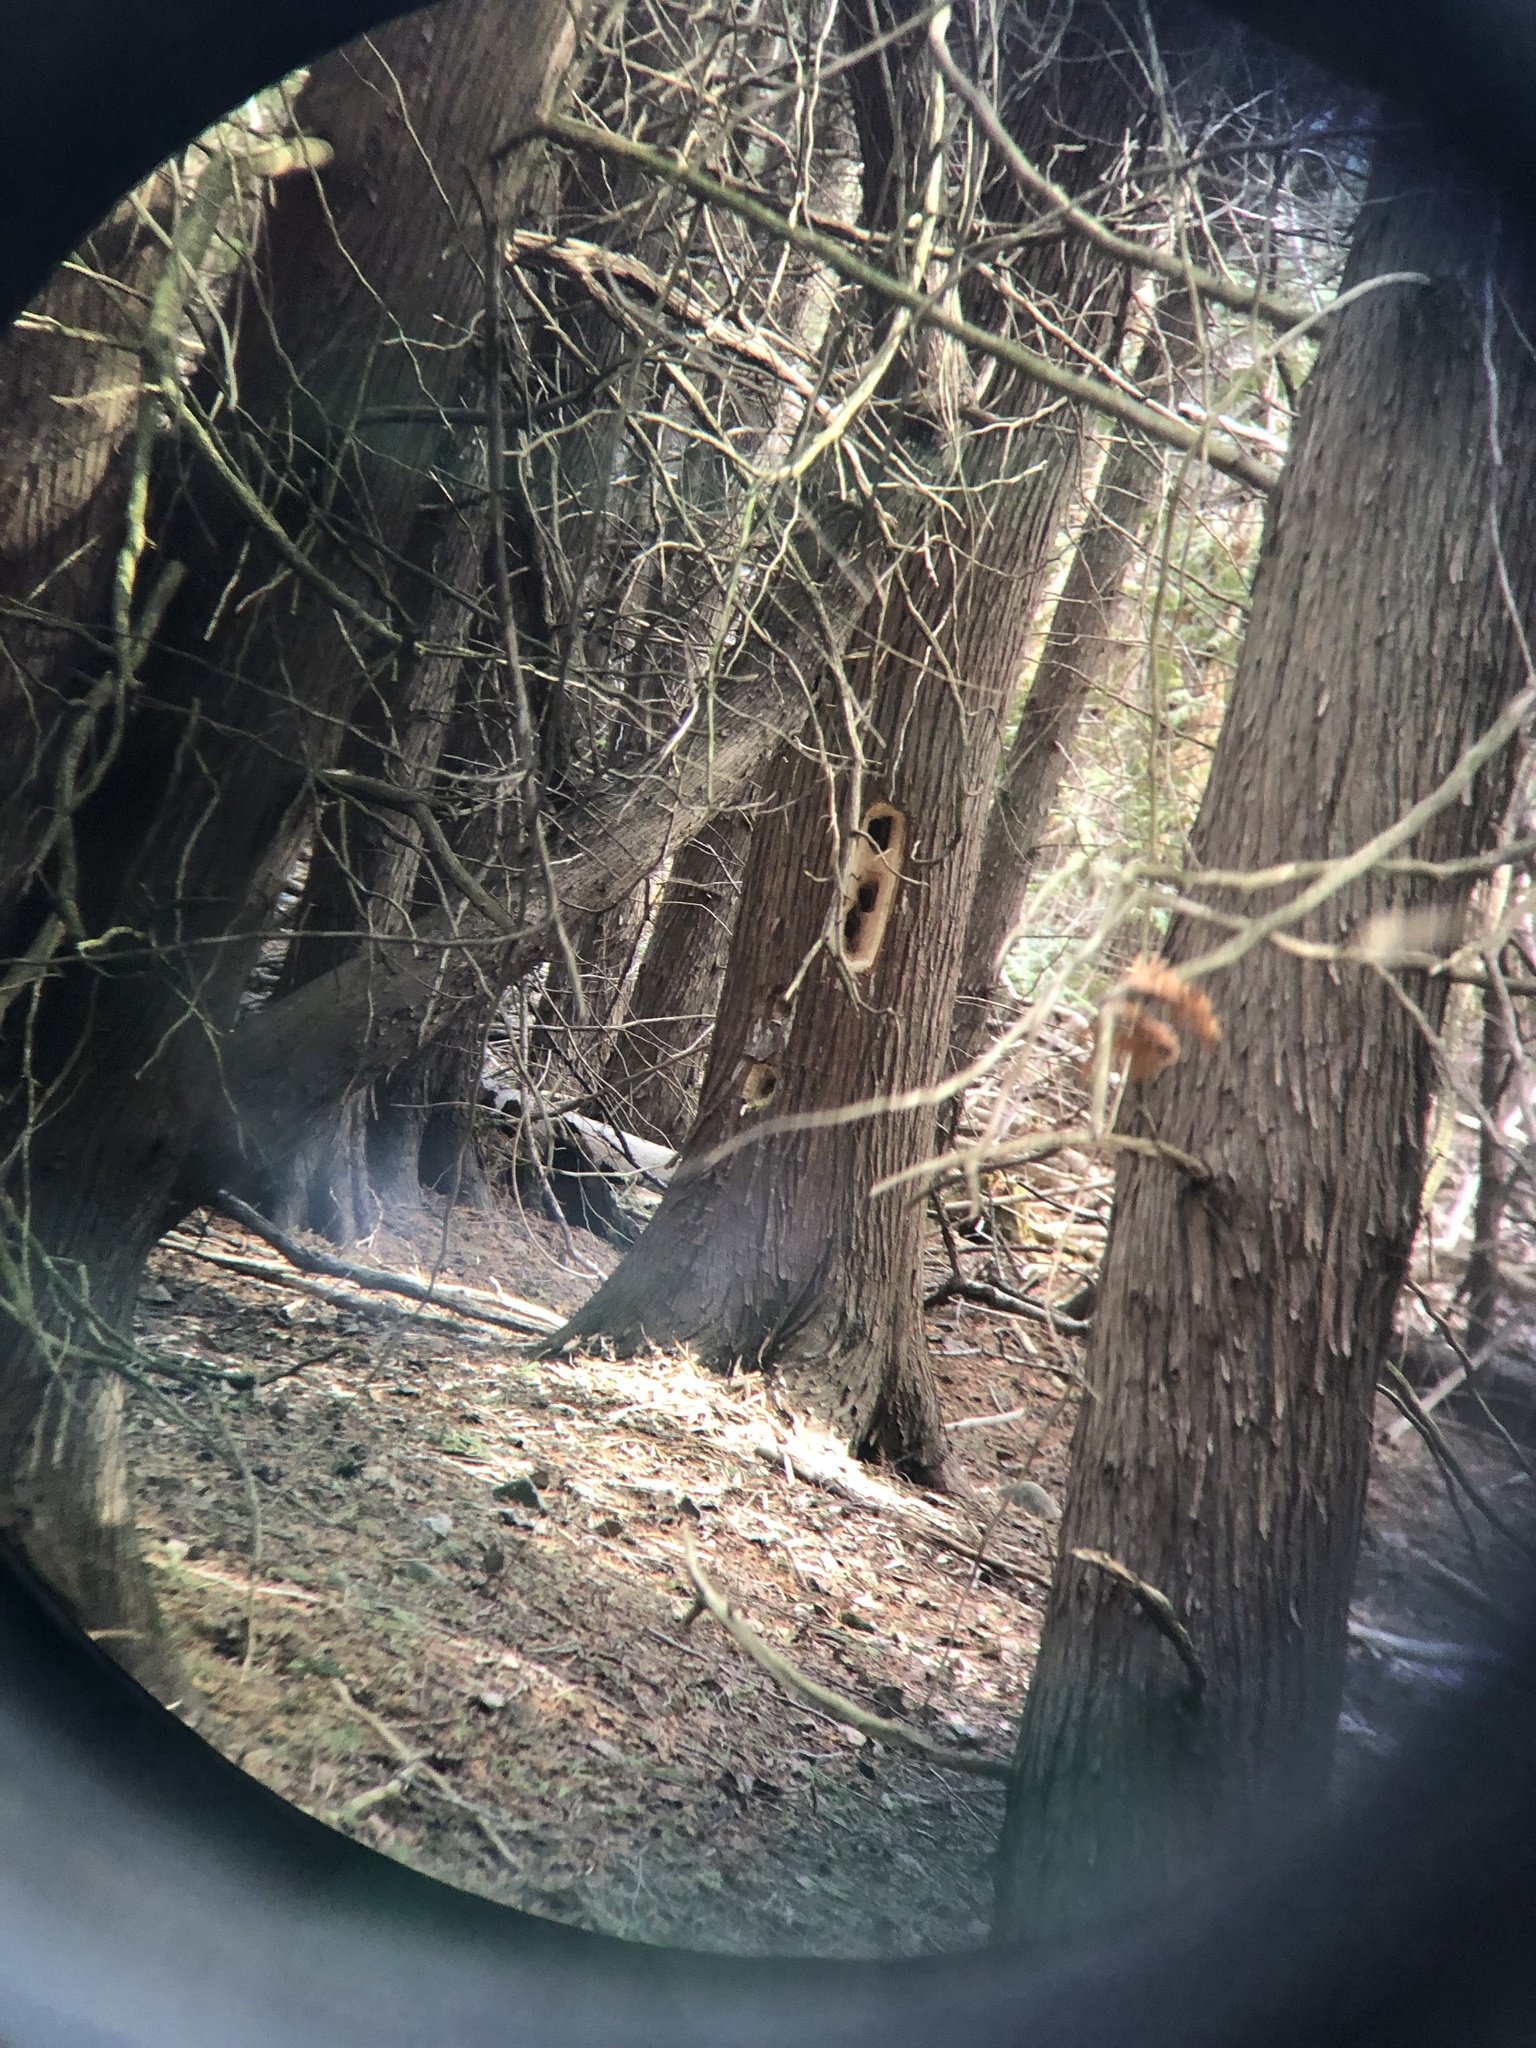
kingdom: Animalia
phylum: Chordata
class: Aves
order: Piciformes
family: Picidae
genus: Dryocopus
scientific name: Dryocopus pileatus
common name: Pileated woodpecker
